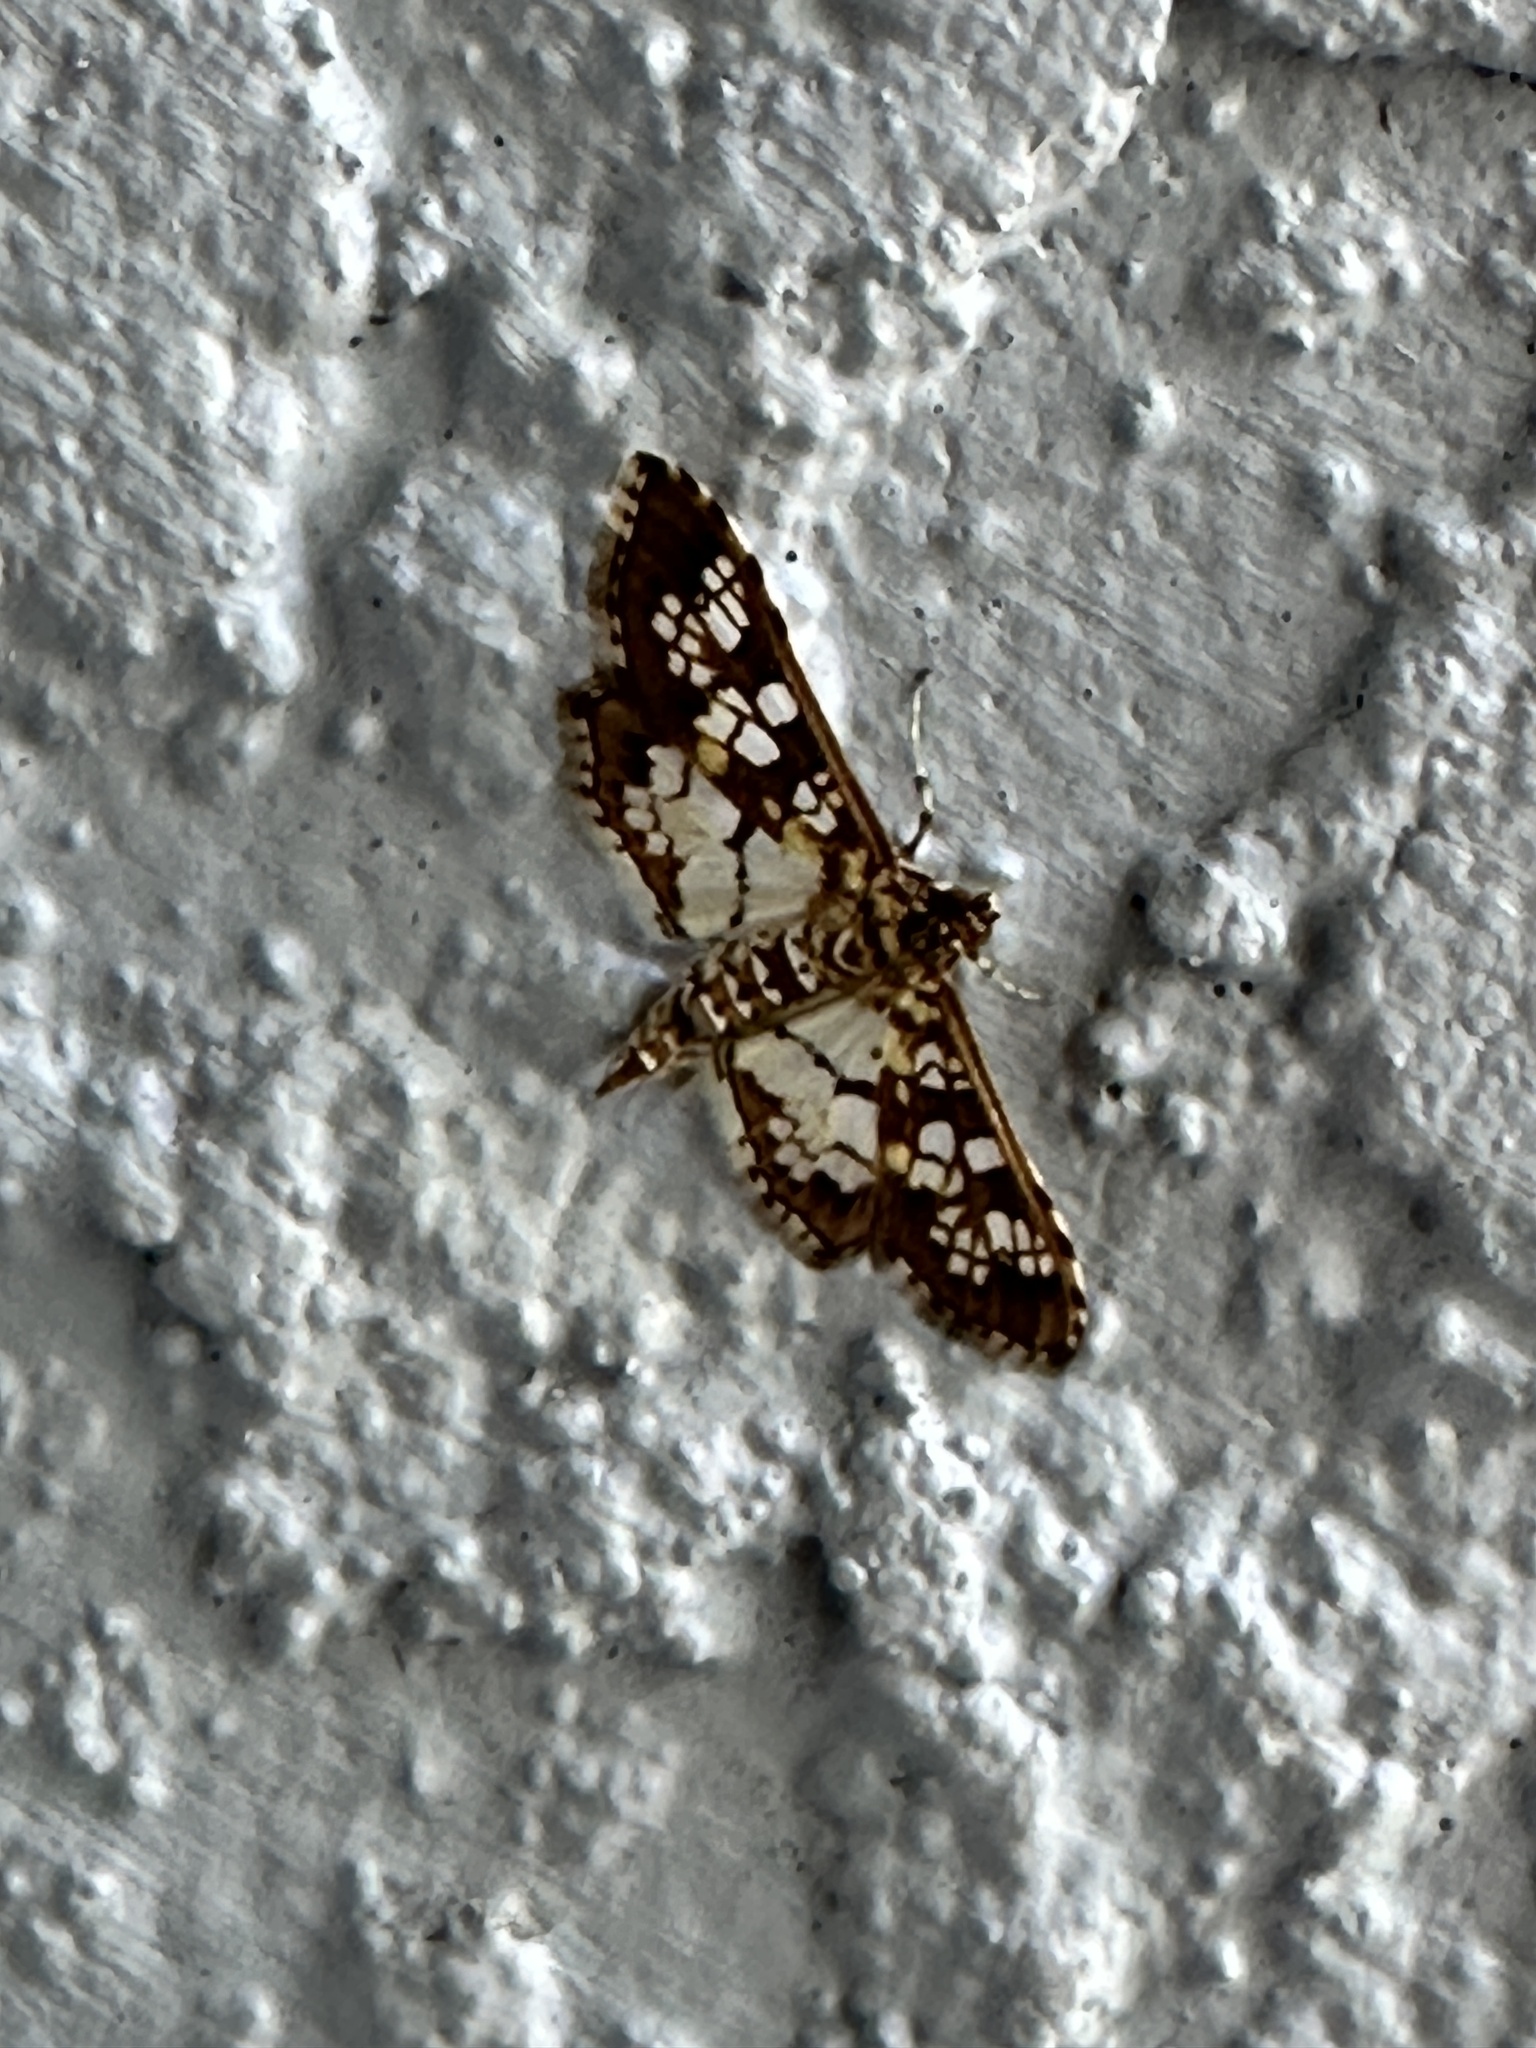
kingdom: Animalia
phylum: Arthropoda
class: Insecta
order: Lepidoptera
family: Crambidae
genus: Samea
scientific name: Samea ecclesialis
